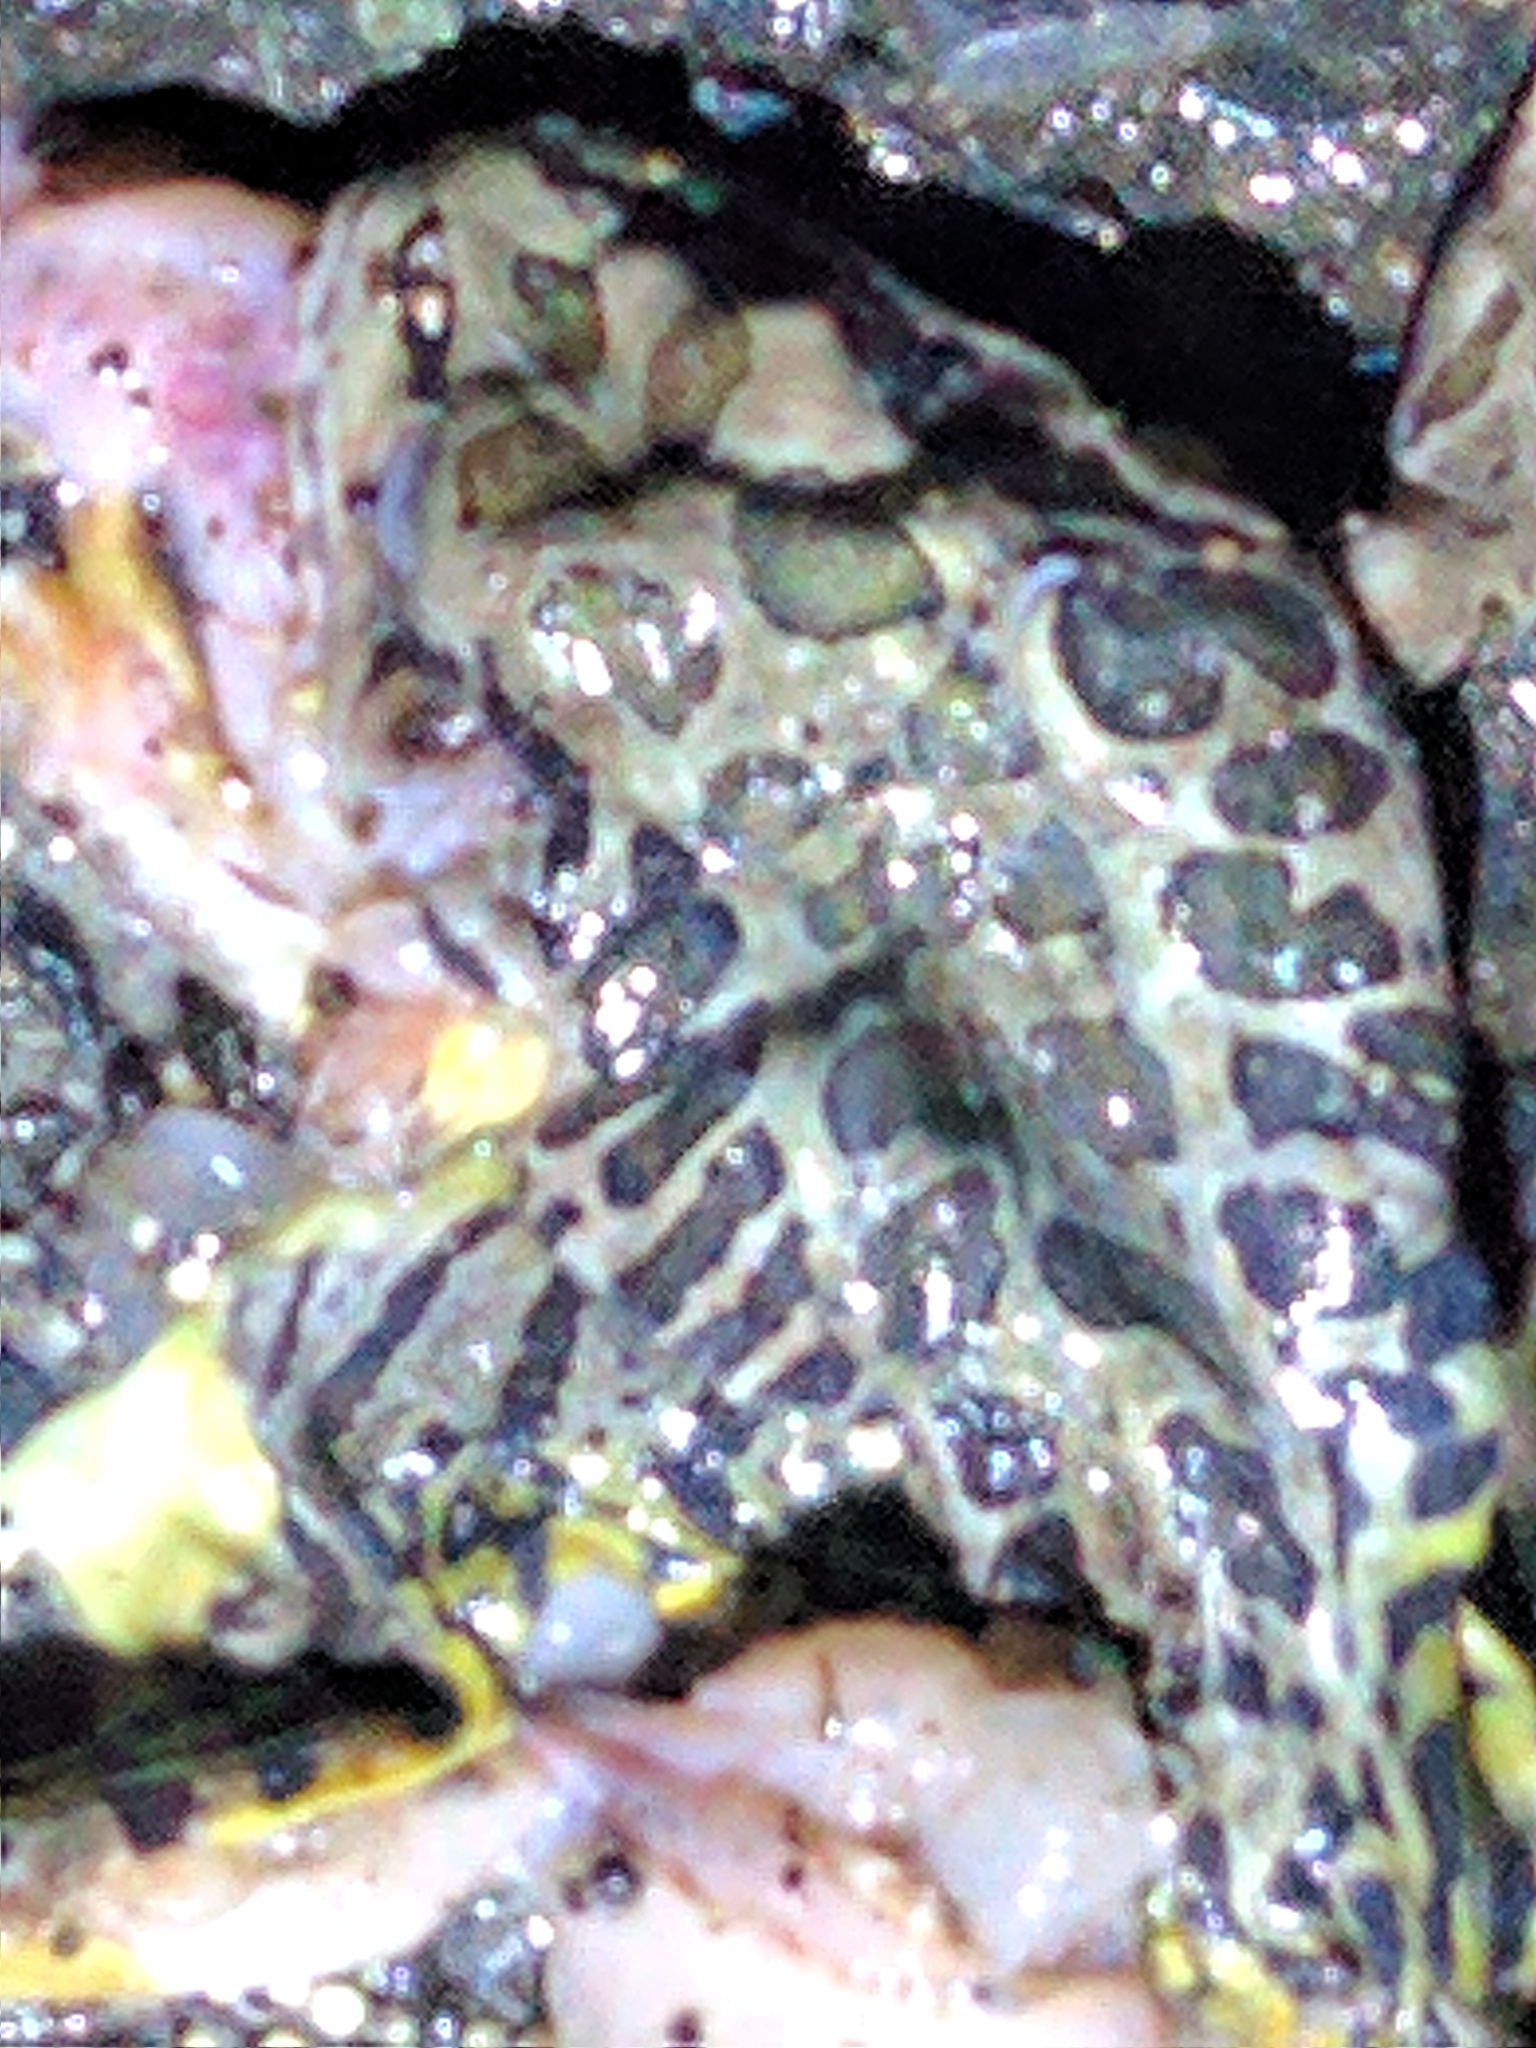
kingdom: Animalia
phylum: Chordata
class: Amphibia
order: Anura
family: Ranidae
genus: Lithobates
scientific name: Lithobates palustris
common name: Pickerel frog
